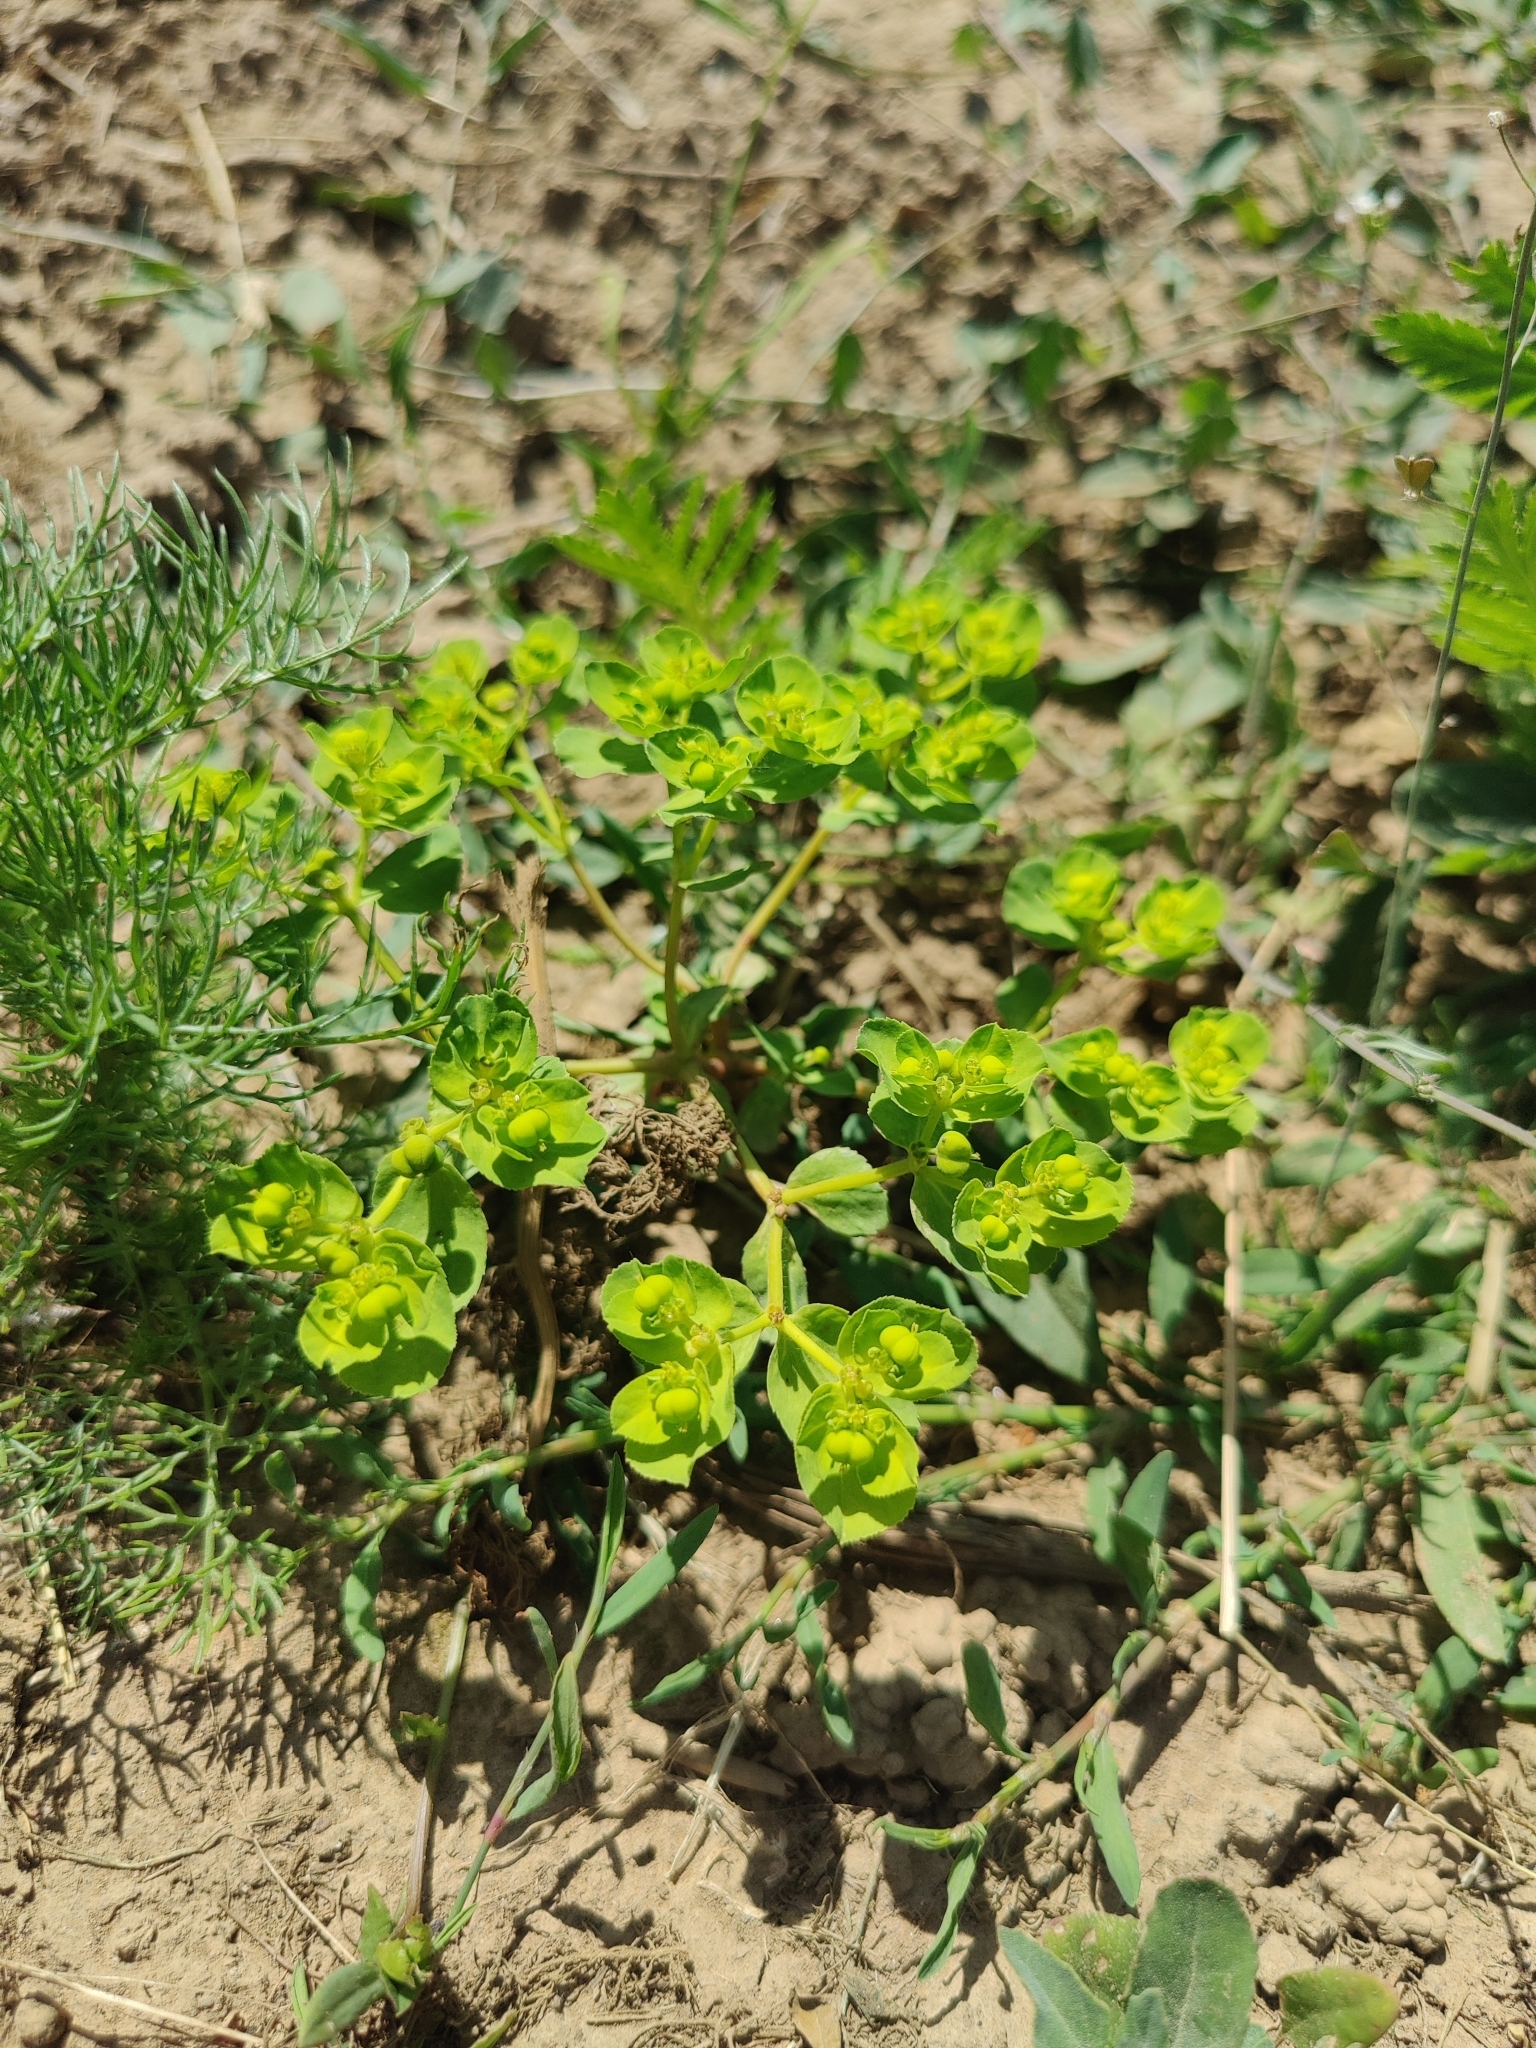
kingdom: Plantae
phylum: Tracheophyta
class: Magnoliopsida
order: Malpighiales
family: Euphorbiaceae
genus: Euphorbia
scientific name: Euphorbia helioscopia
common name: Sun spurge
